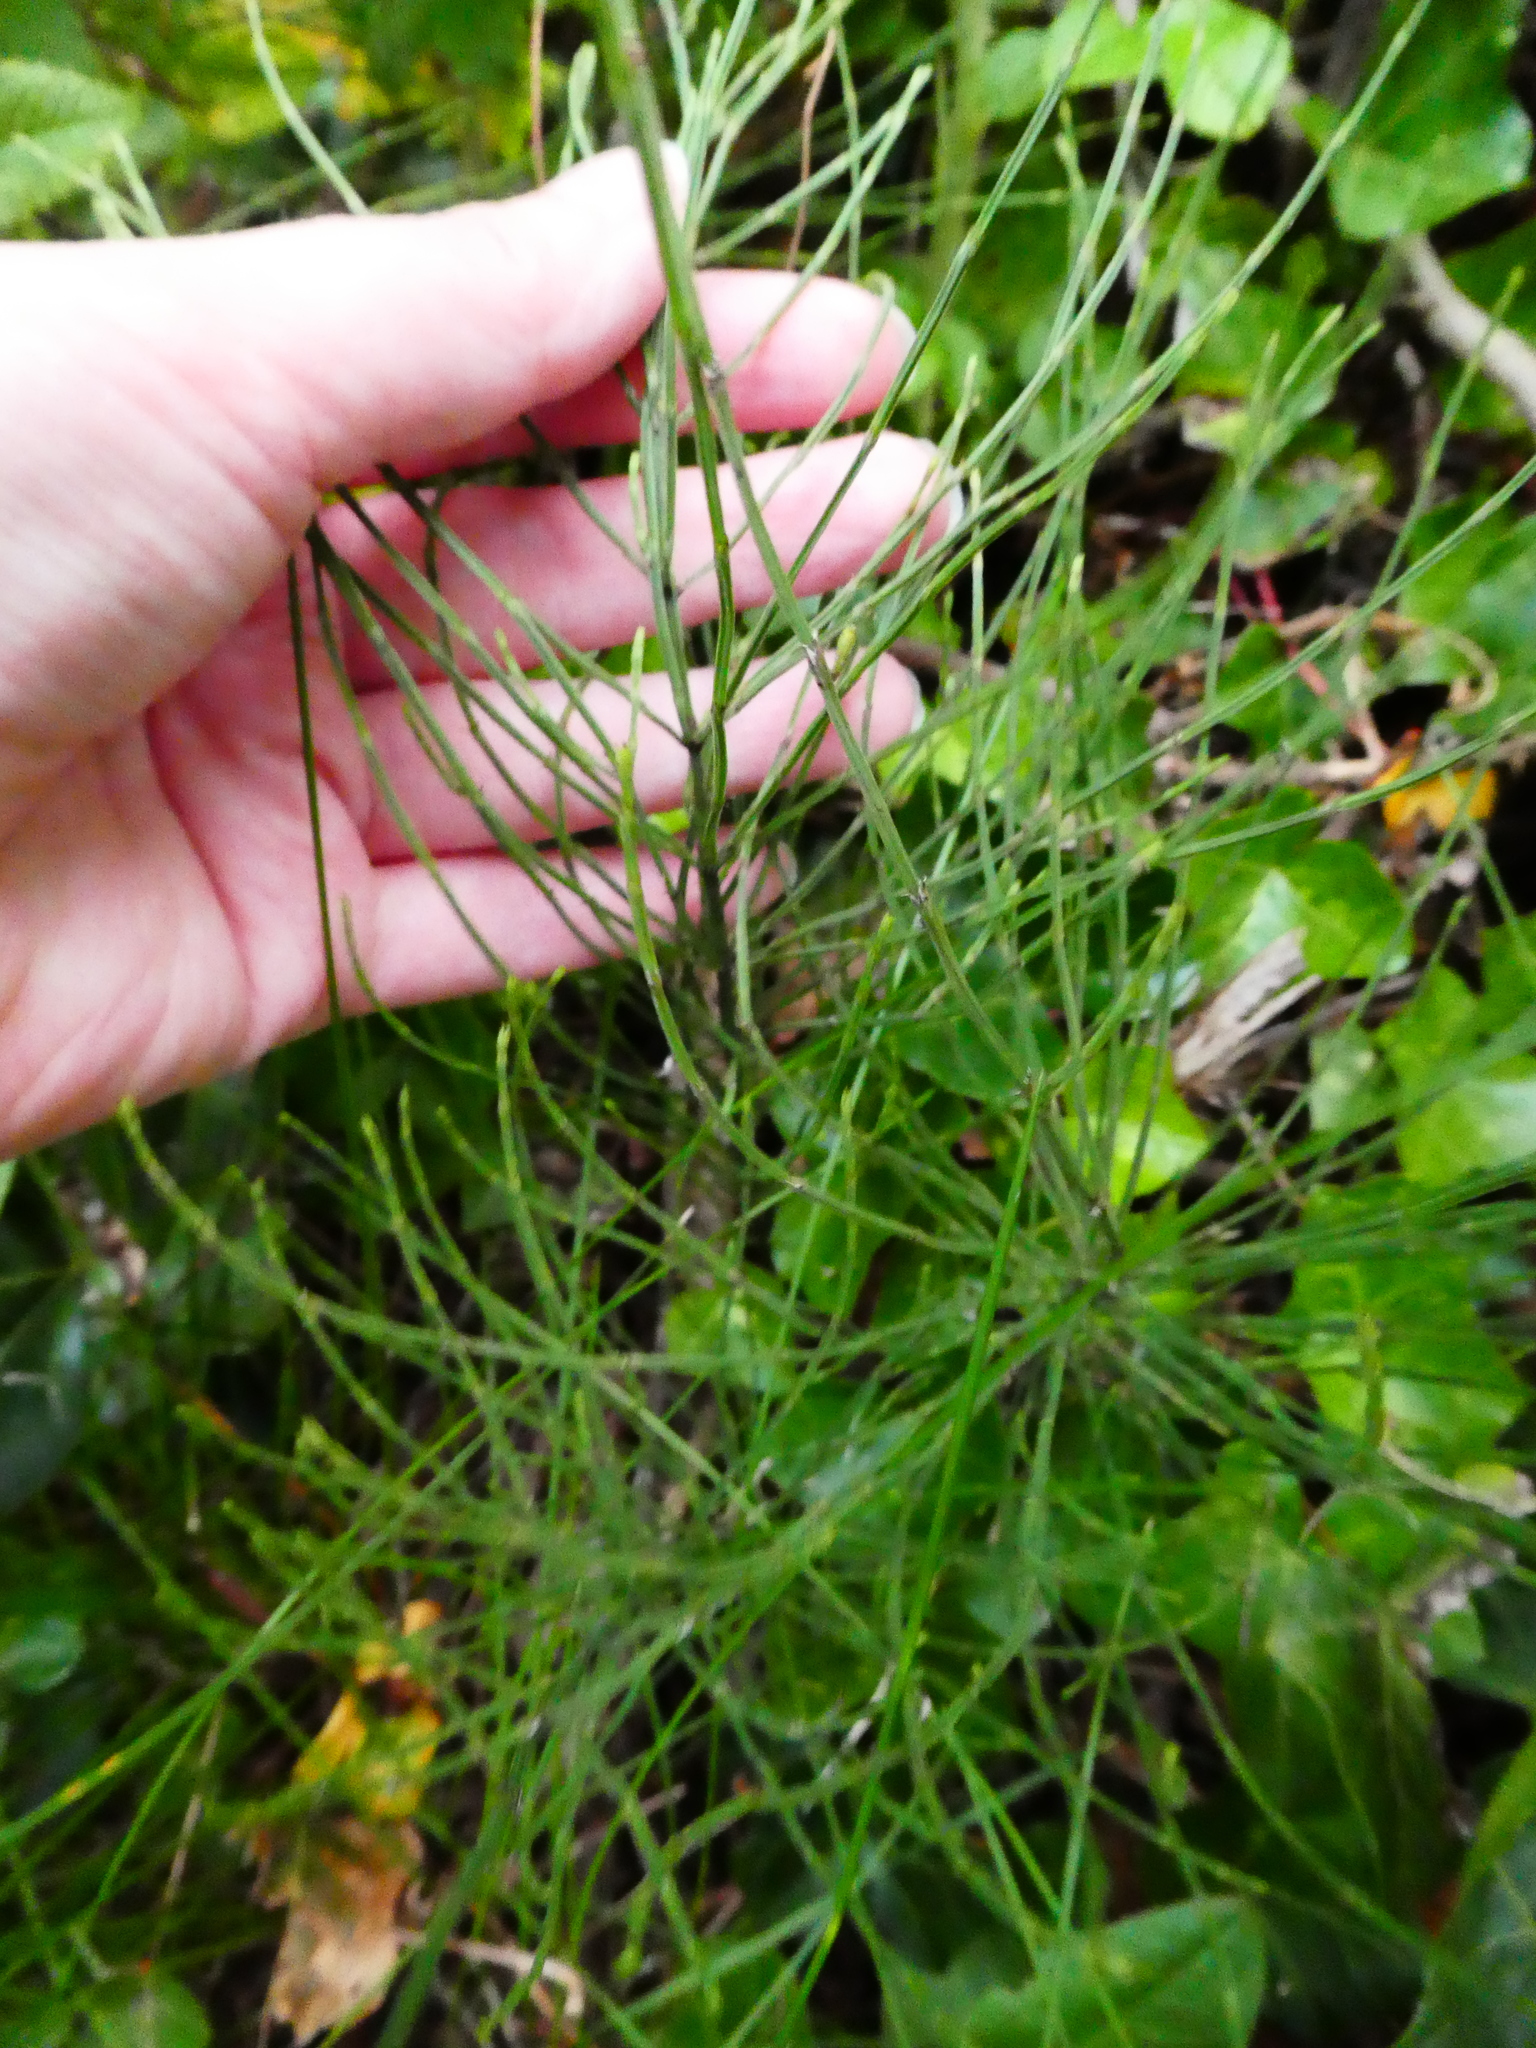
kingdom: Plantae
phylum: Tracheophyta
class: Polypodiopsida
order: Equisetales
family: Equisetaceae
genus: Equisetum
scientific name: Equisetum arvense
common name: Field horsetail
